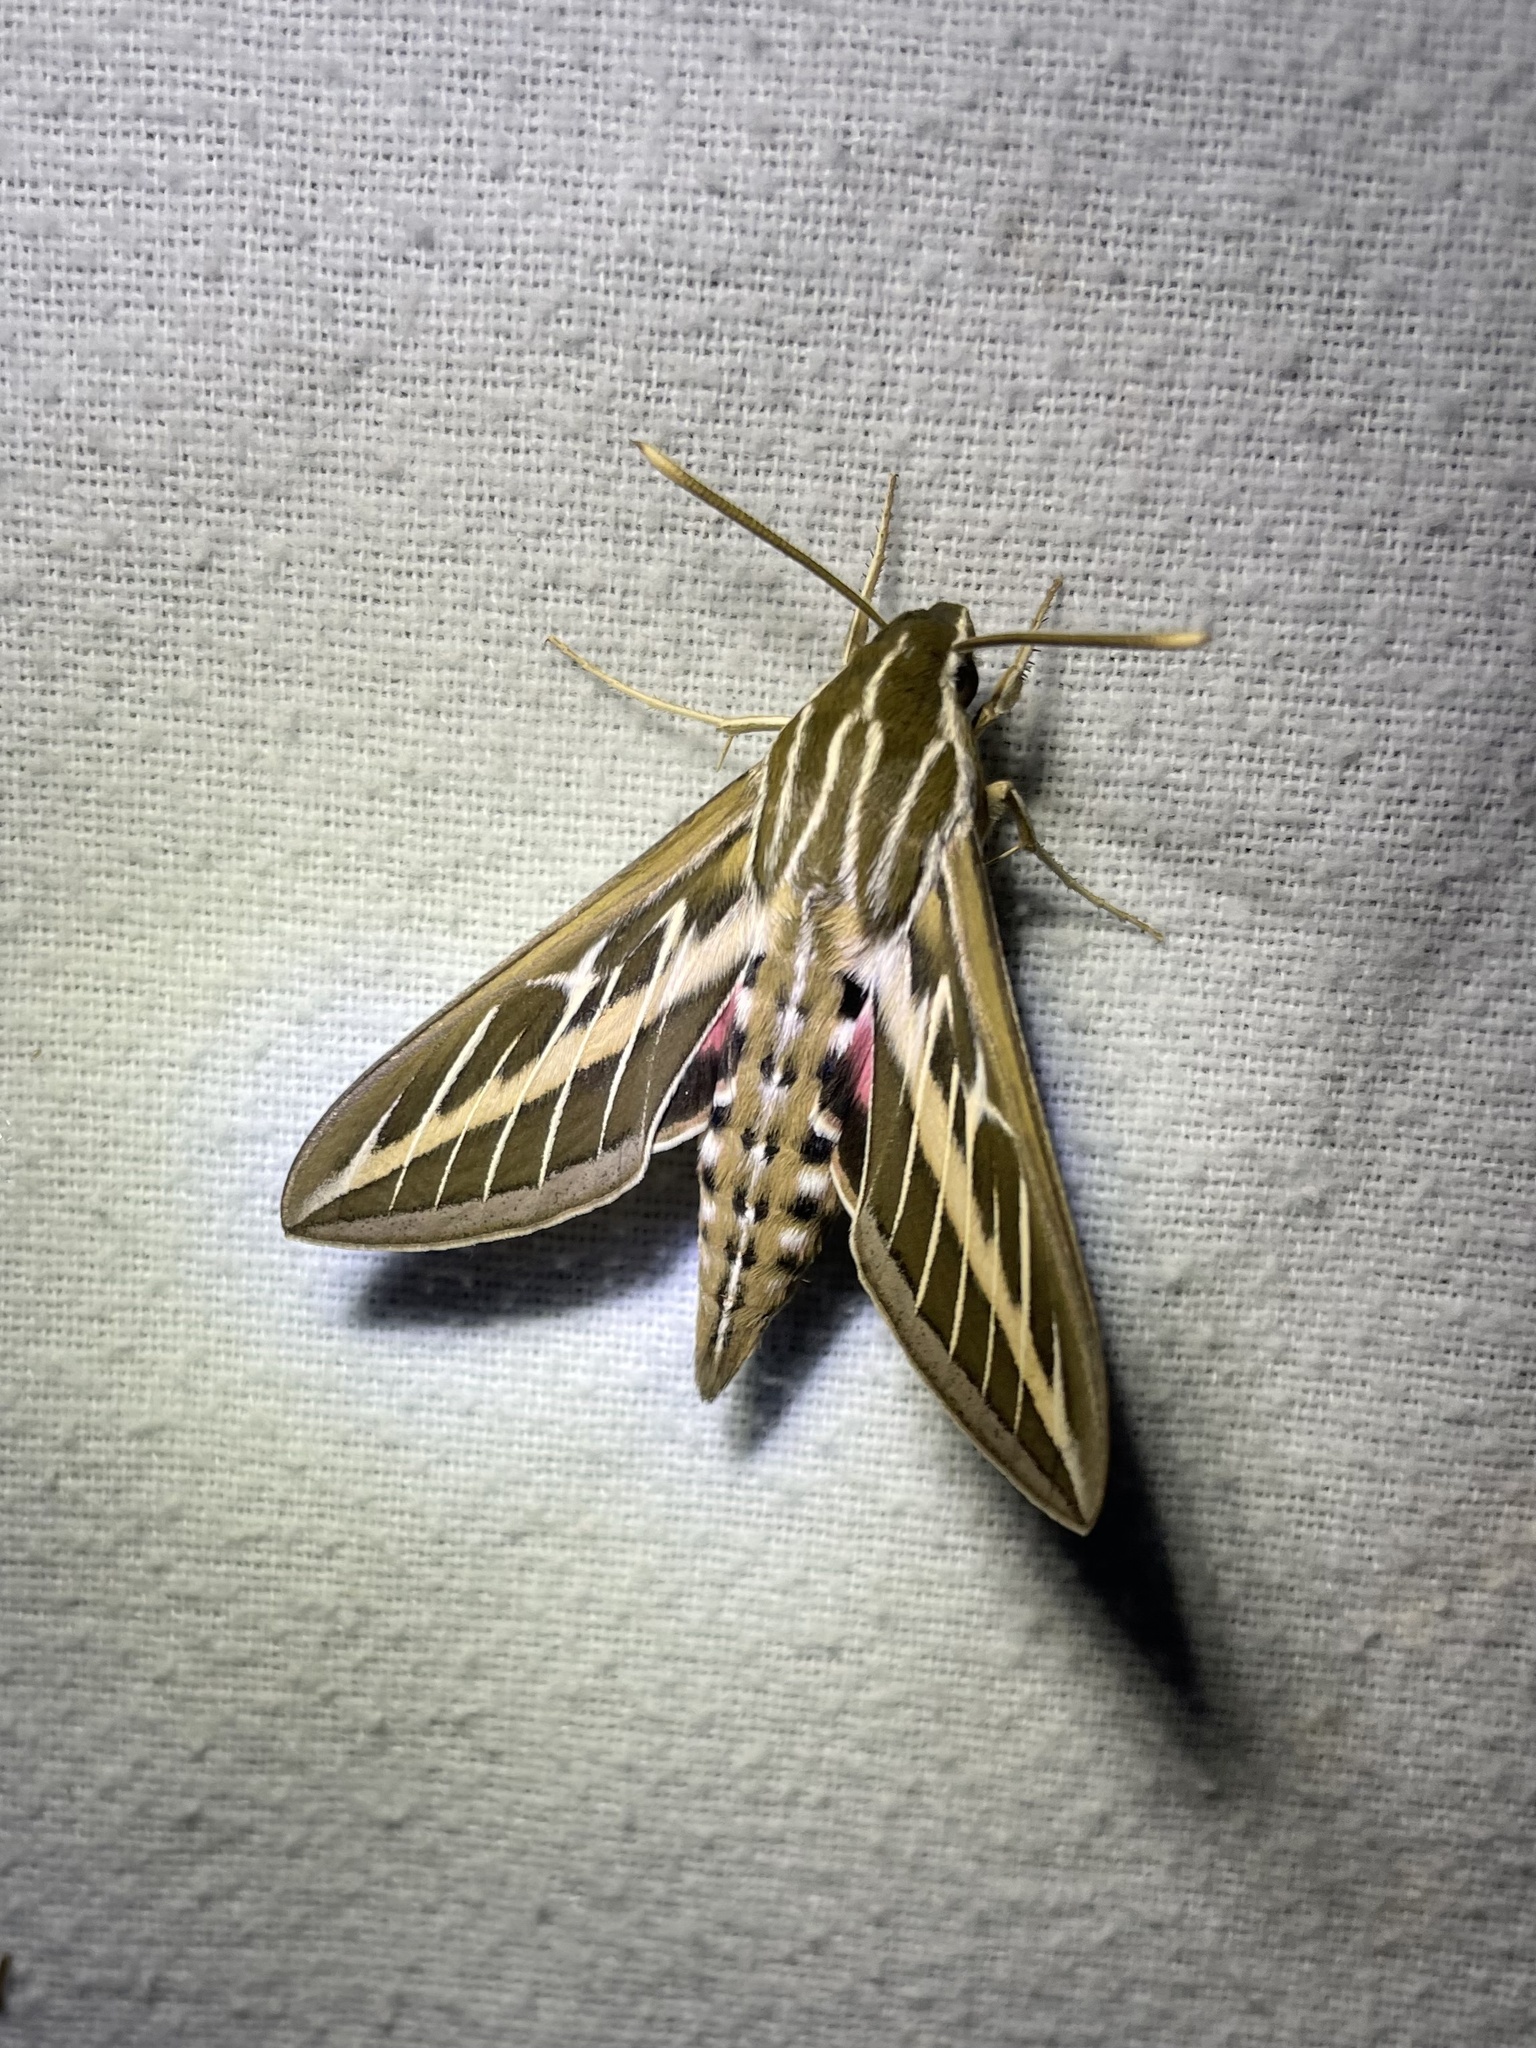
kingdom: Animalia
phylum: Arthropoda
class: Insecta
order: Lepidoptera
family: Sphingidae
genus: Hyles
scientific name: Hyles lineata
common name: White-lined sphinx
